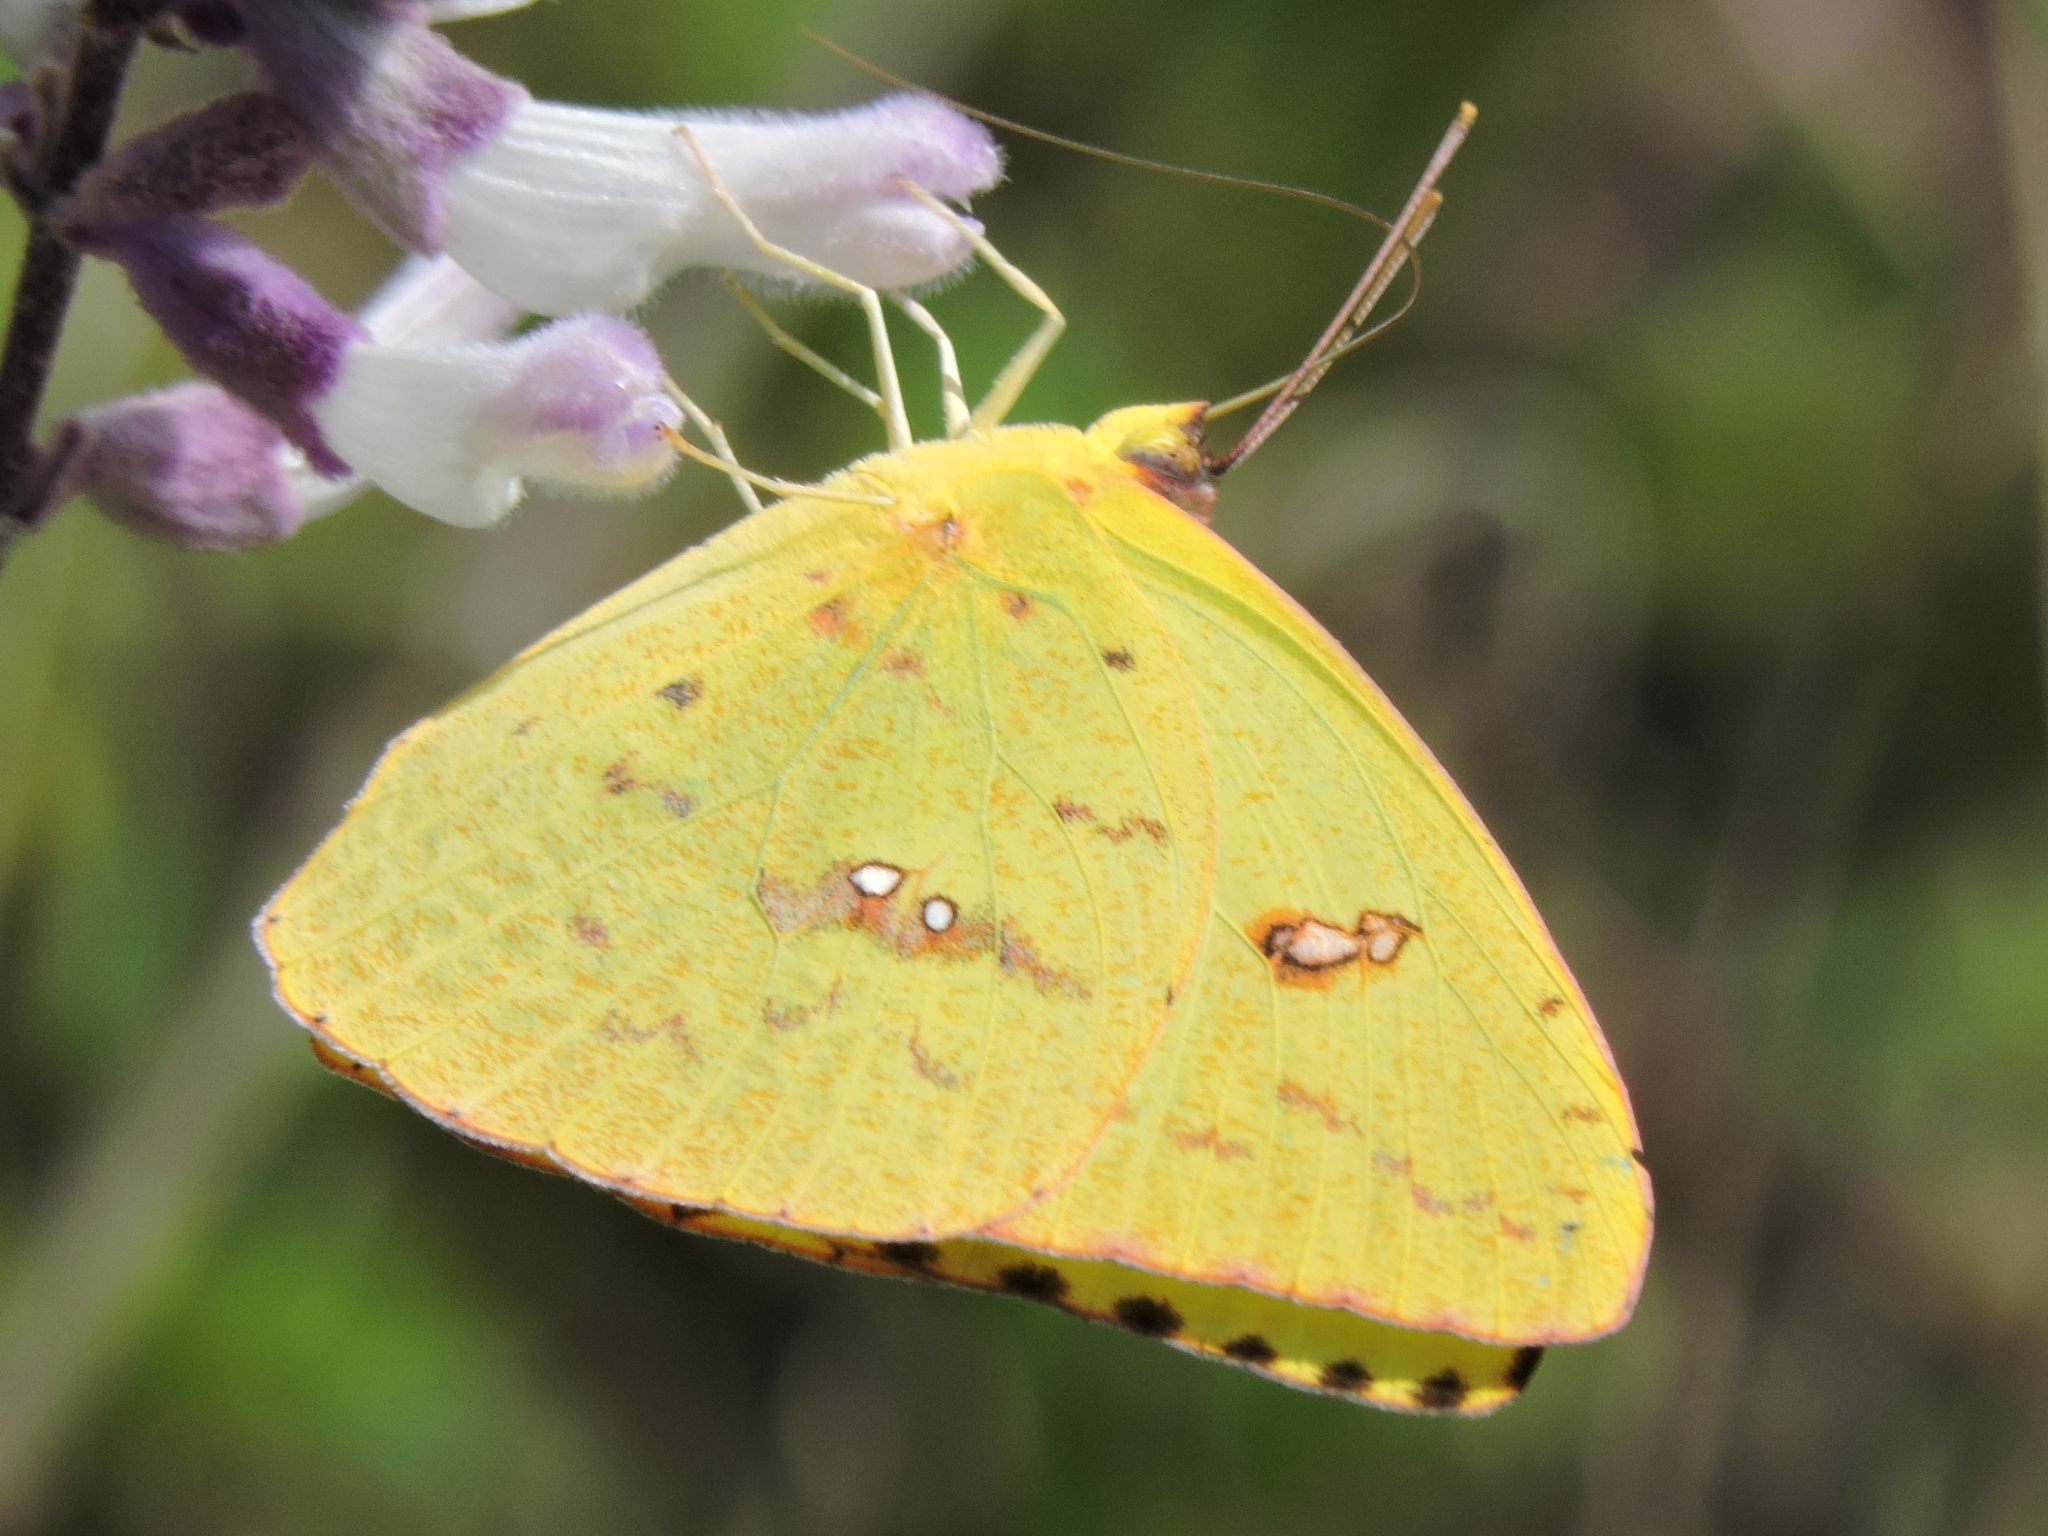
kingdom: Animalia
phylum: Arthropoda
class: Insecta
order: Lepidoptera
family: Pieridae
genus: Phoebis
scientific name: Phoebis sennae
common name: Cloudless sulphur
